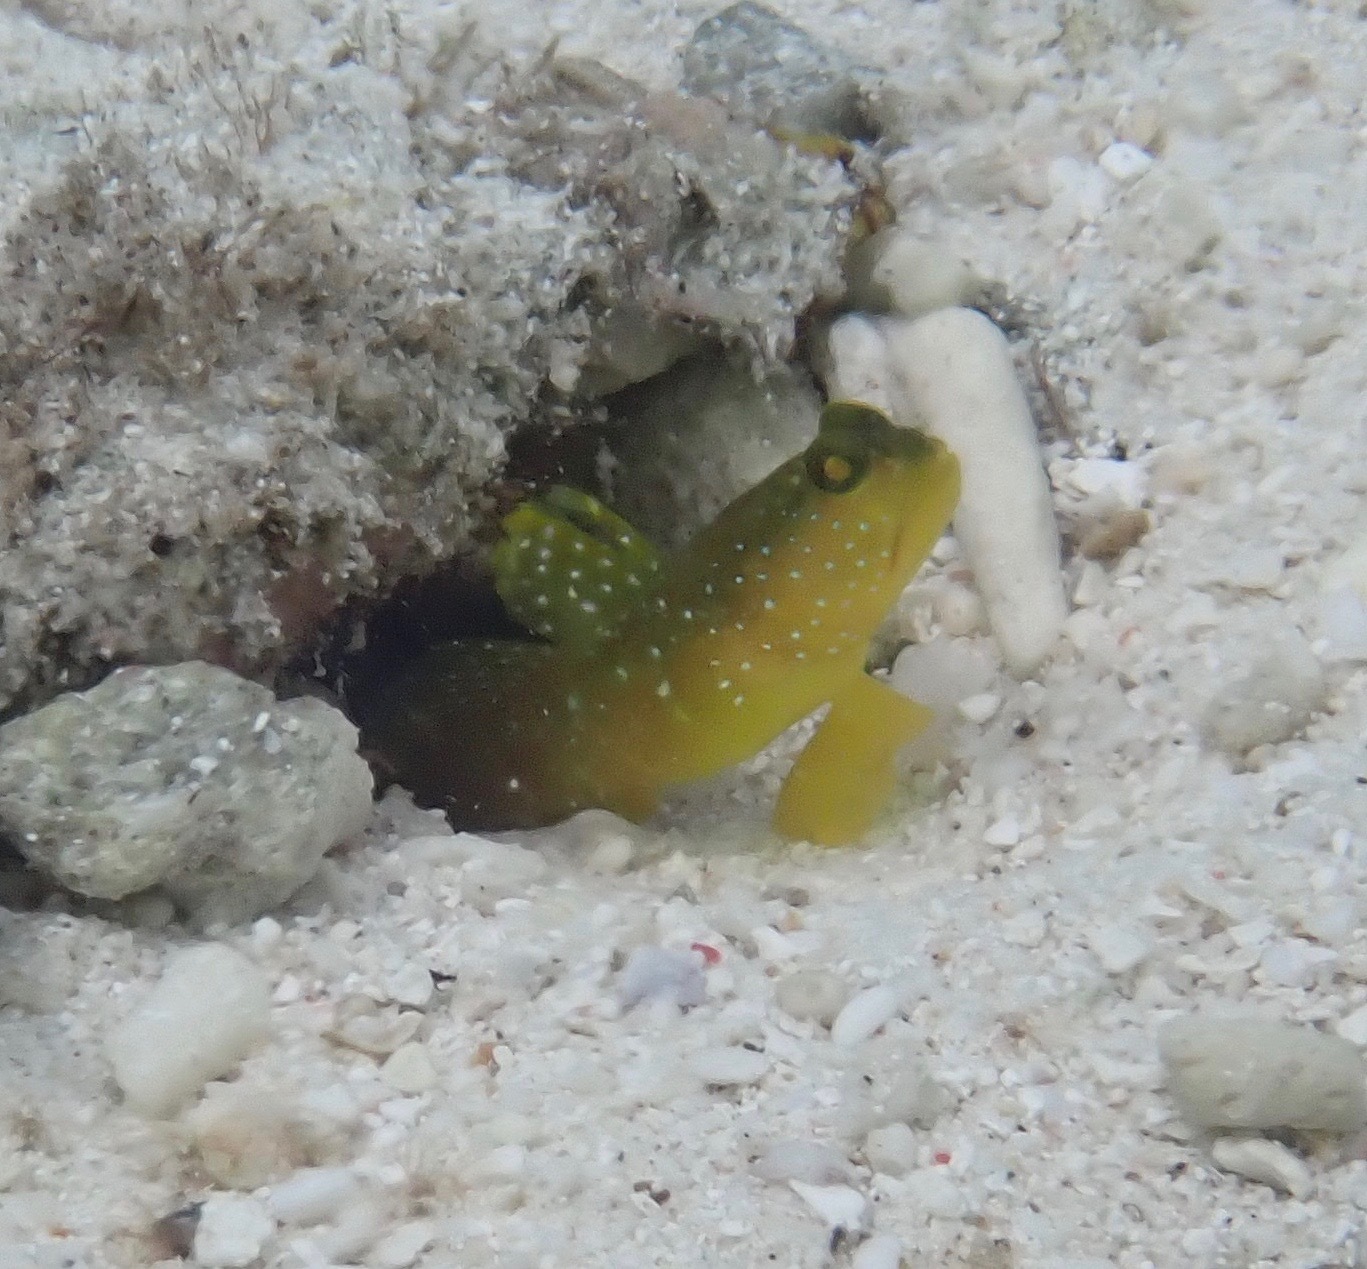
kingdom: Animalia
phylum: Chordata
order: Perciformes
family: Gobiidae
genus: Cryptocentrus
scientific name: Cryptocentrus cinctus
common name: Yellow shrimp goby
